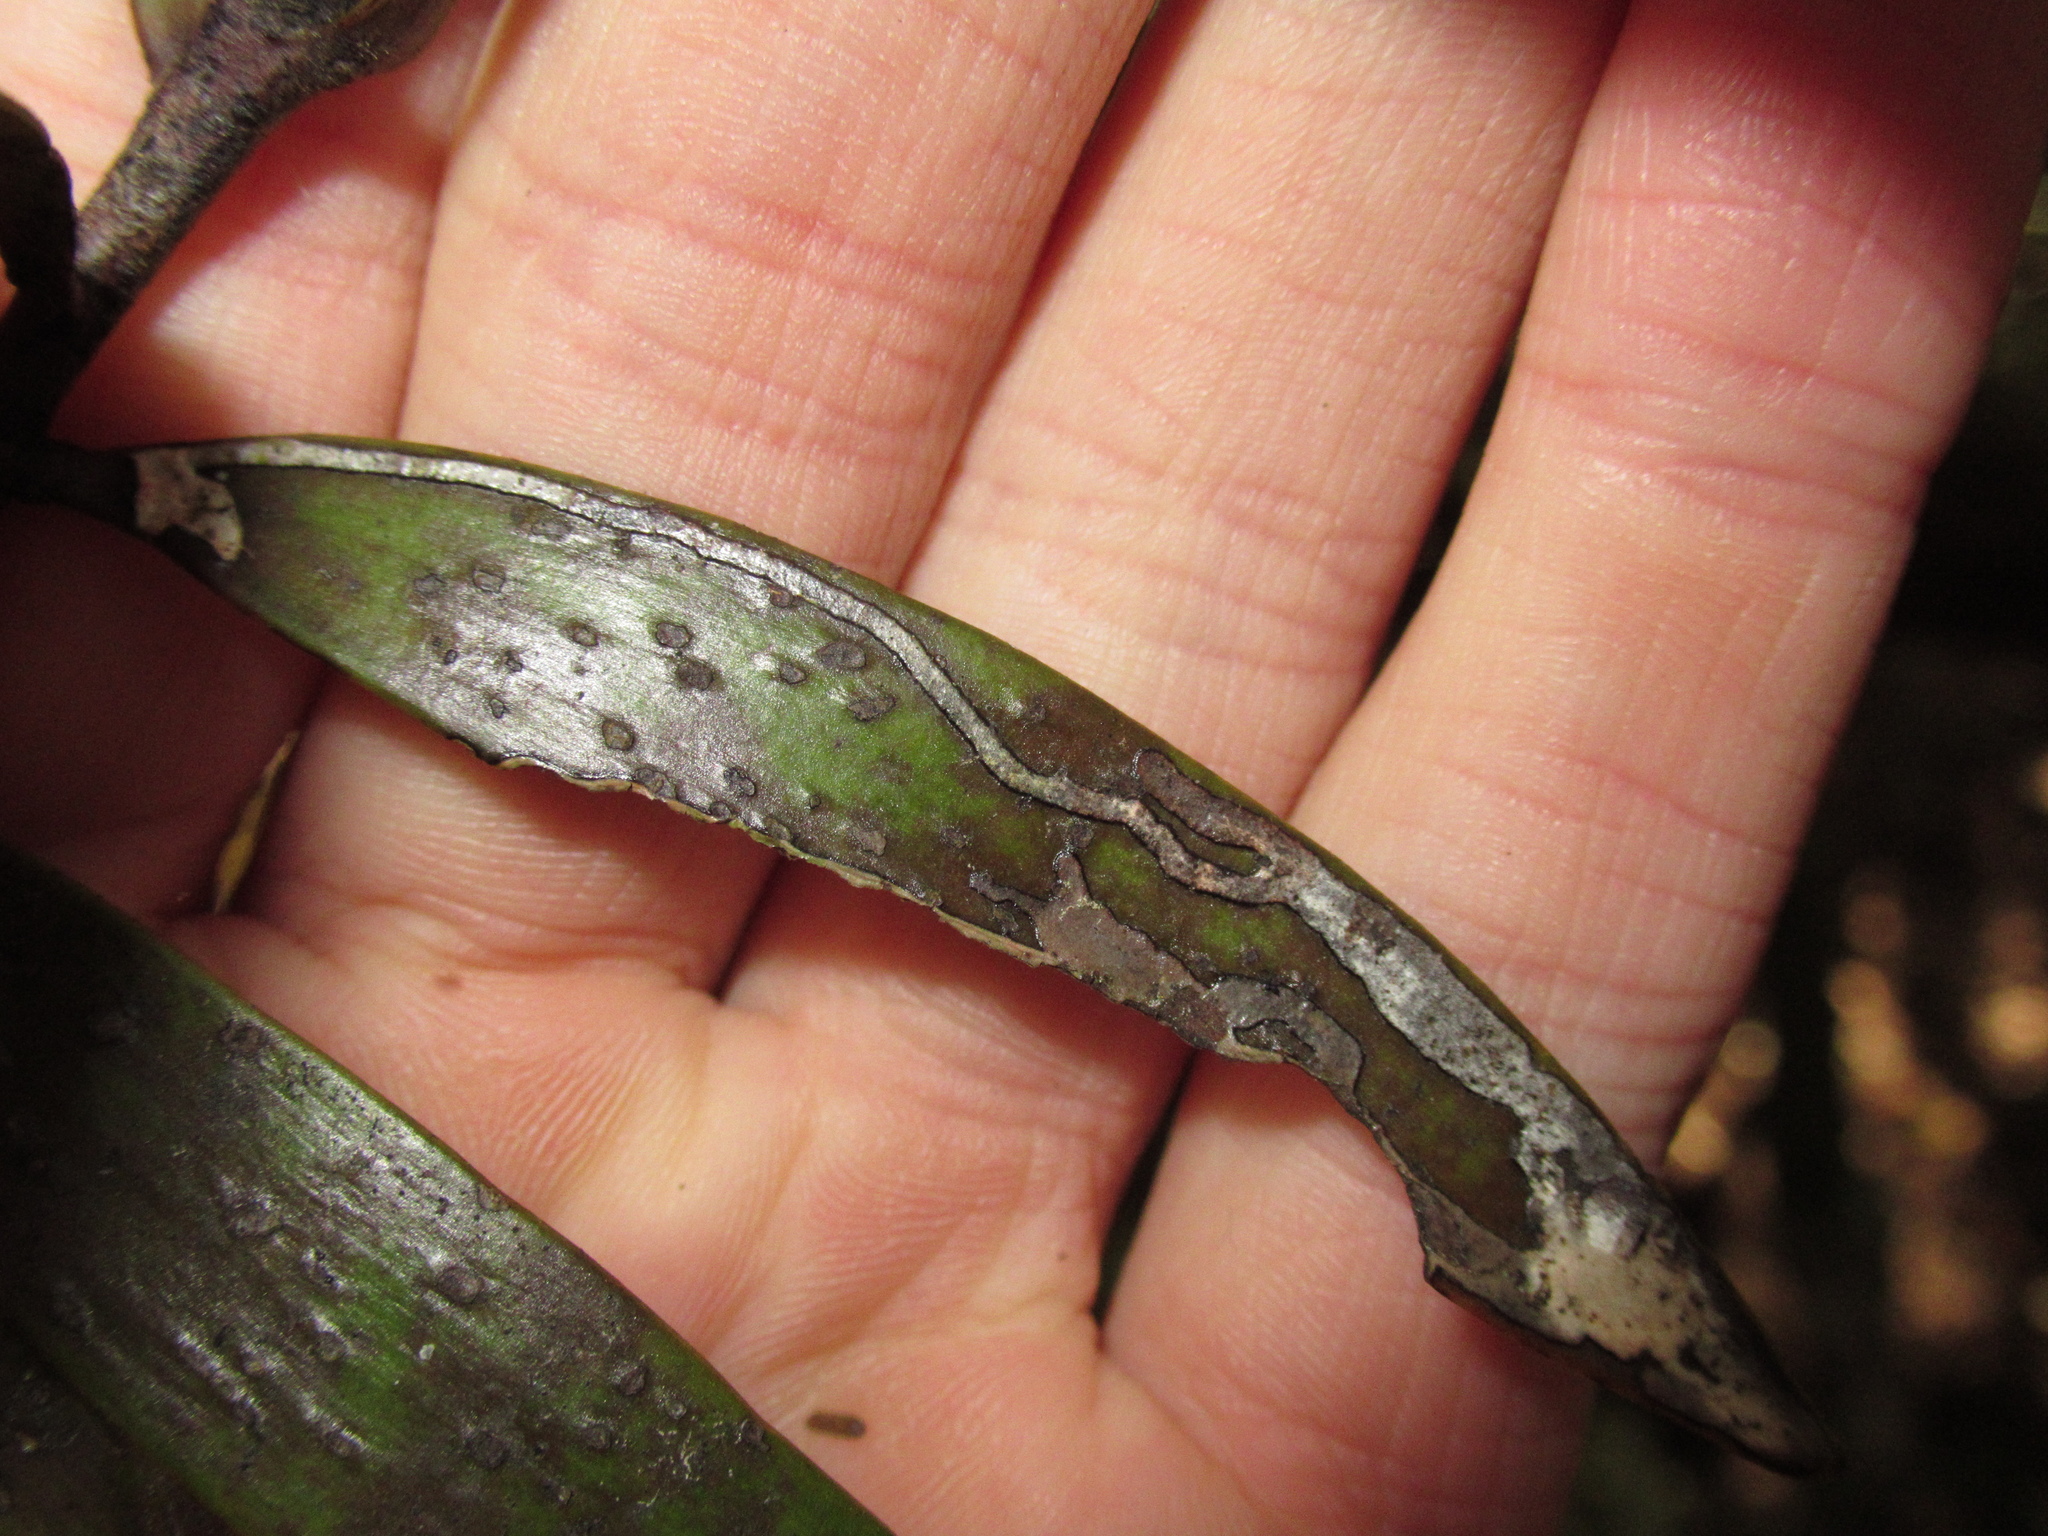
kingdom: Animalia
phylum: Arthropoda
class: Insecta
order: Lepidoptera
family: Gracillariidae
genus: Acrocercops
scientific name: Acrocercops leucotoma
